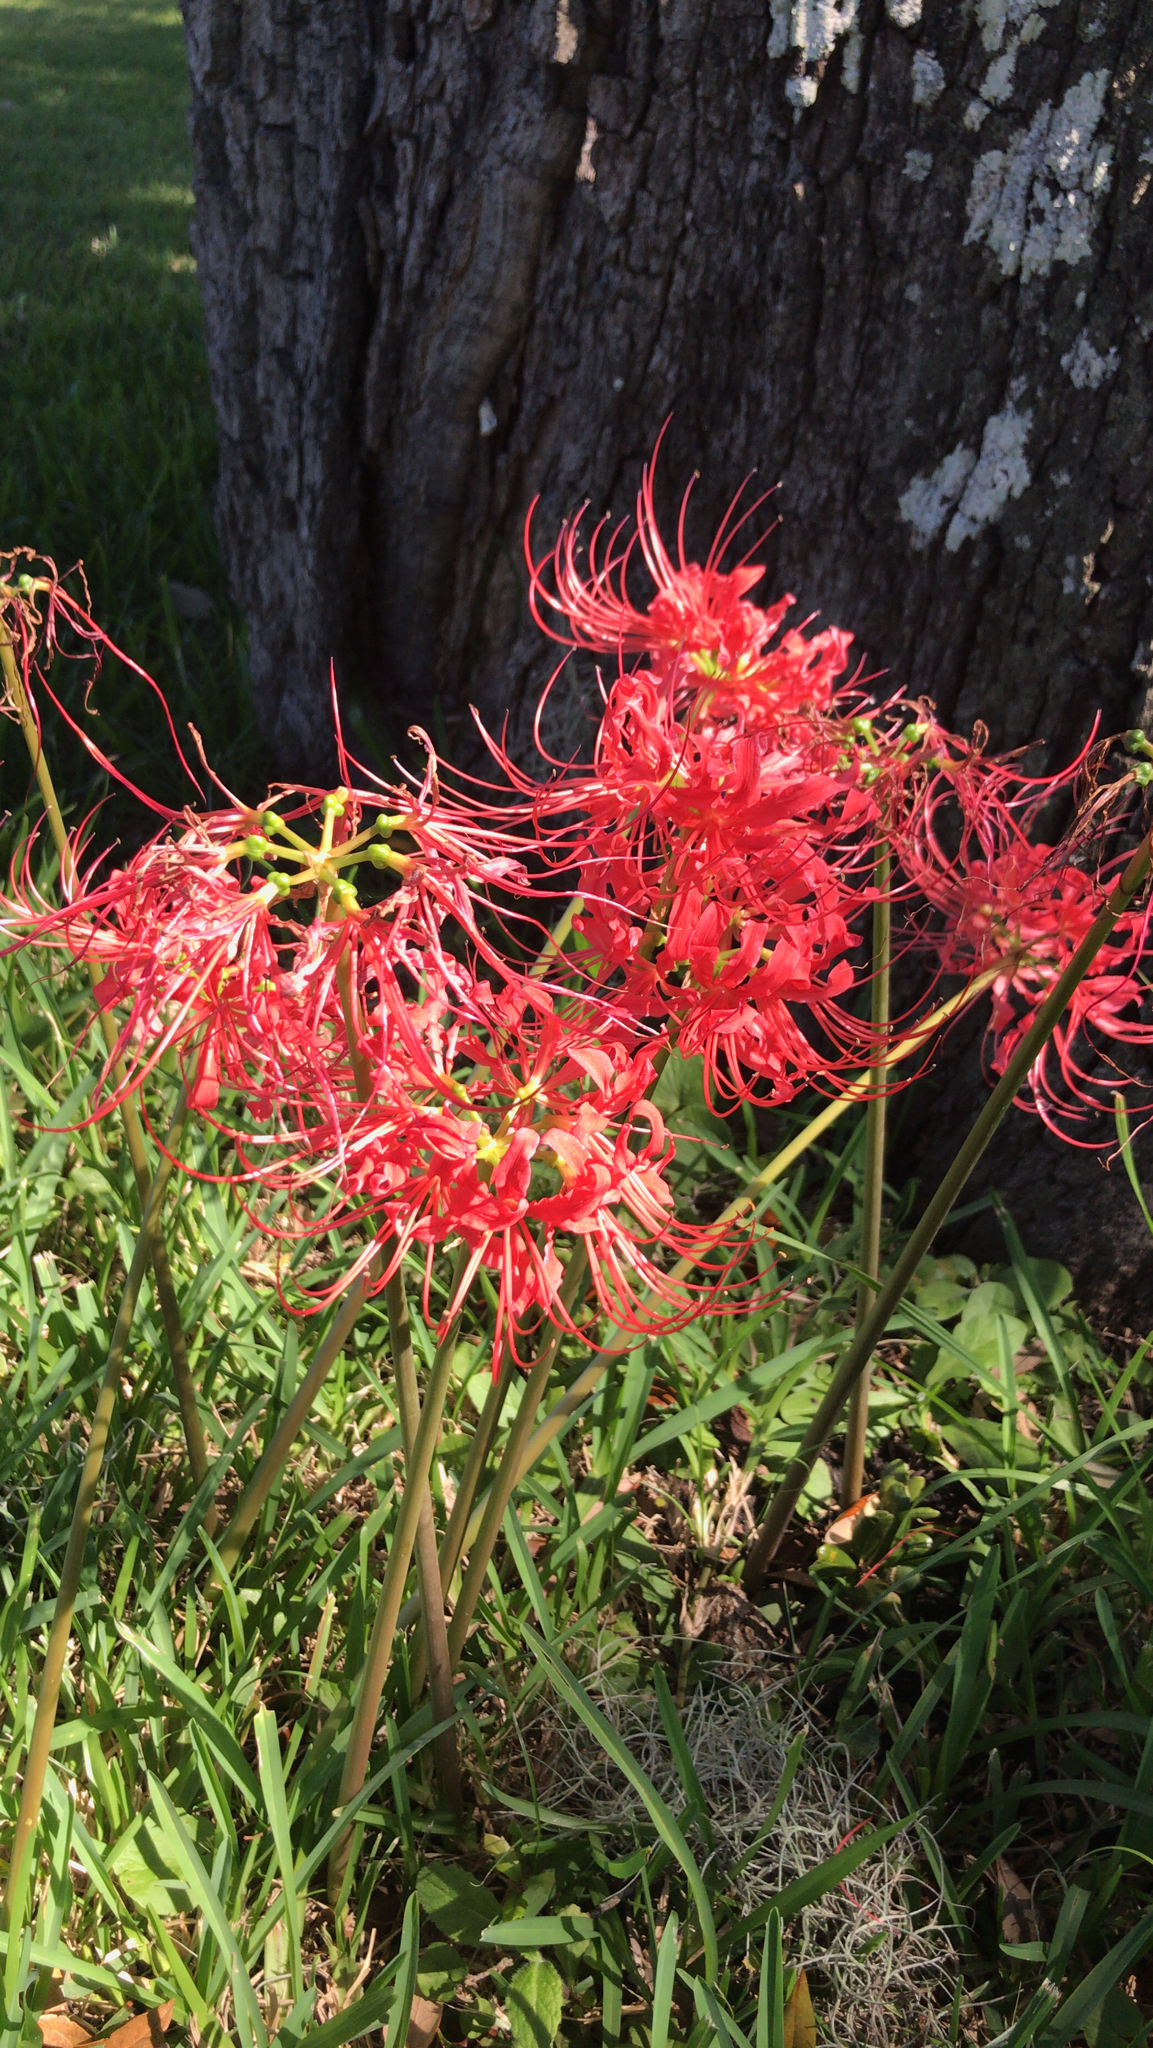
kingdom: Plantae
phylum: Tracheophyta
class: Liliopsida
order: Asparagales
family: Amaryllidaceae
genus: Lycoris
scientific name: Lycoris radiata
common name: Red spider lily
